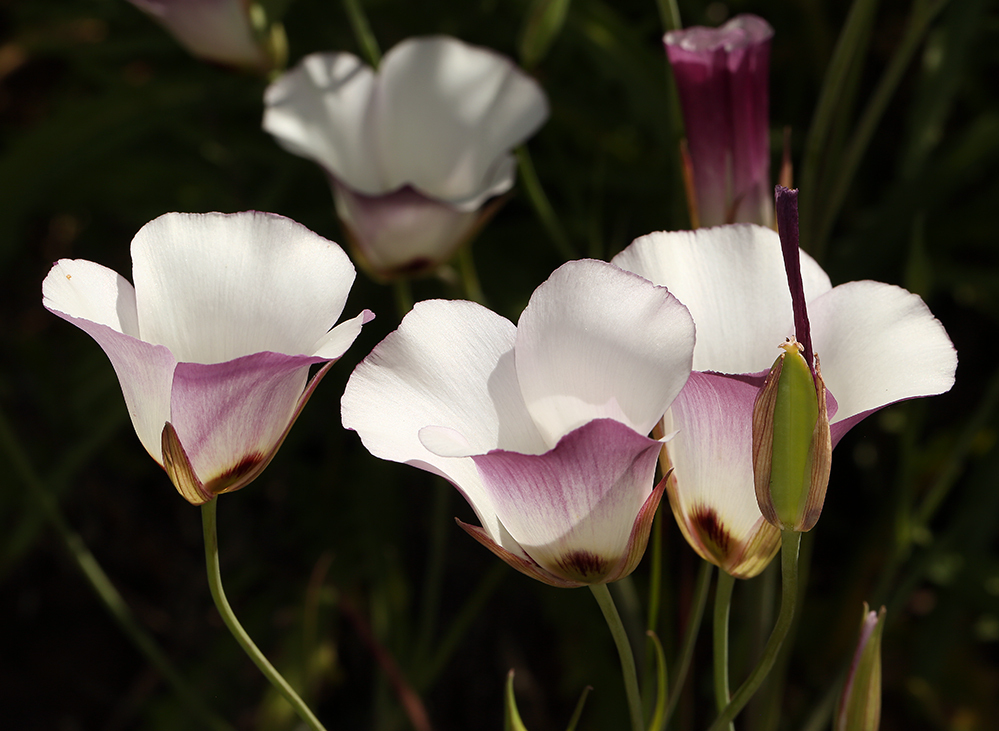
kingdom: Plantae
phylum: Tracheophyta
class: Liliopsida
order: Liliales
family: Liliaceae
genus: Calochortus
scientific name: Calochortus catalinae
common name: Catalina mariposa-lily
